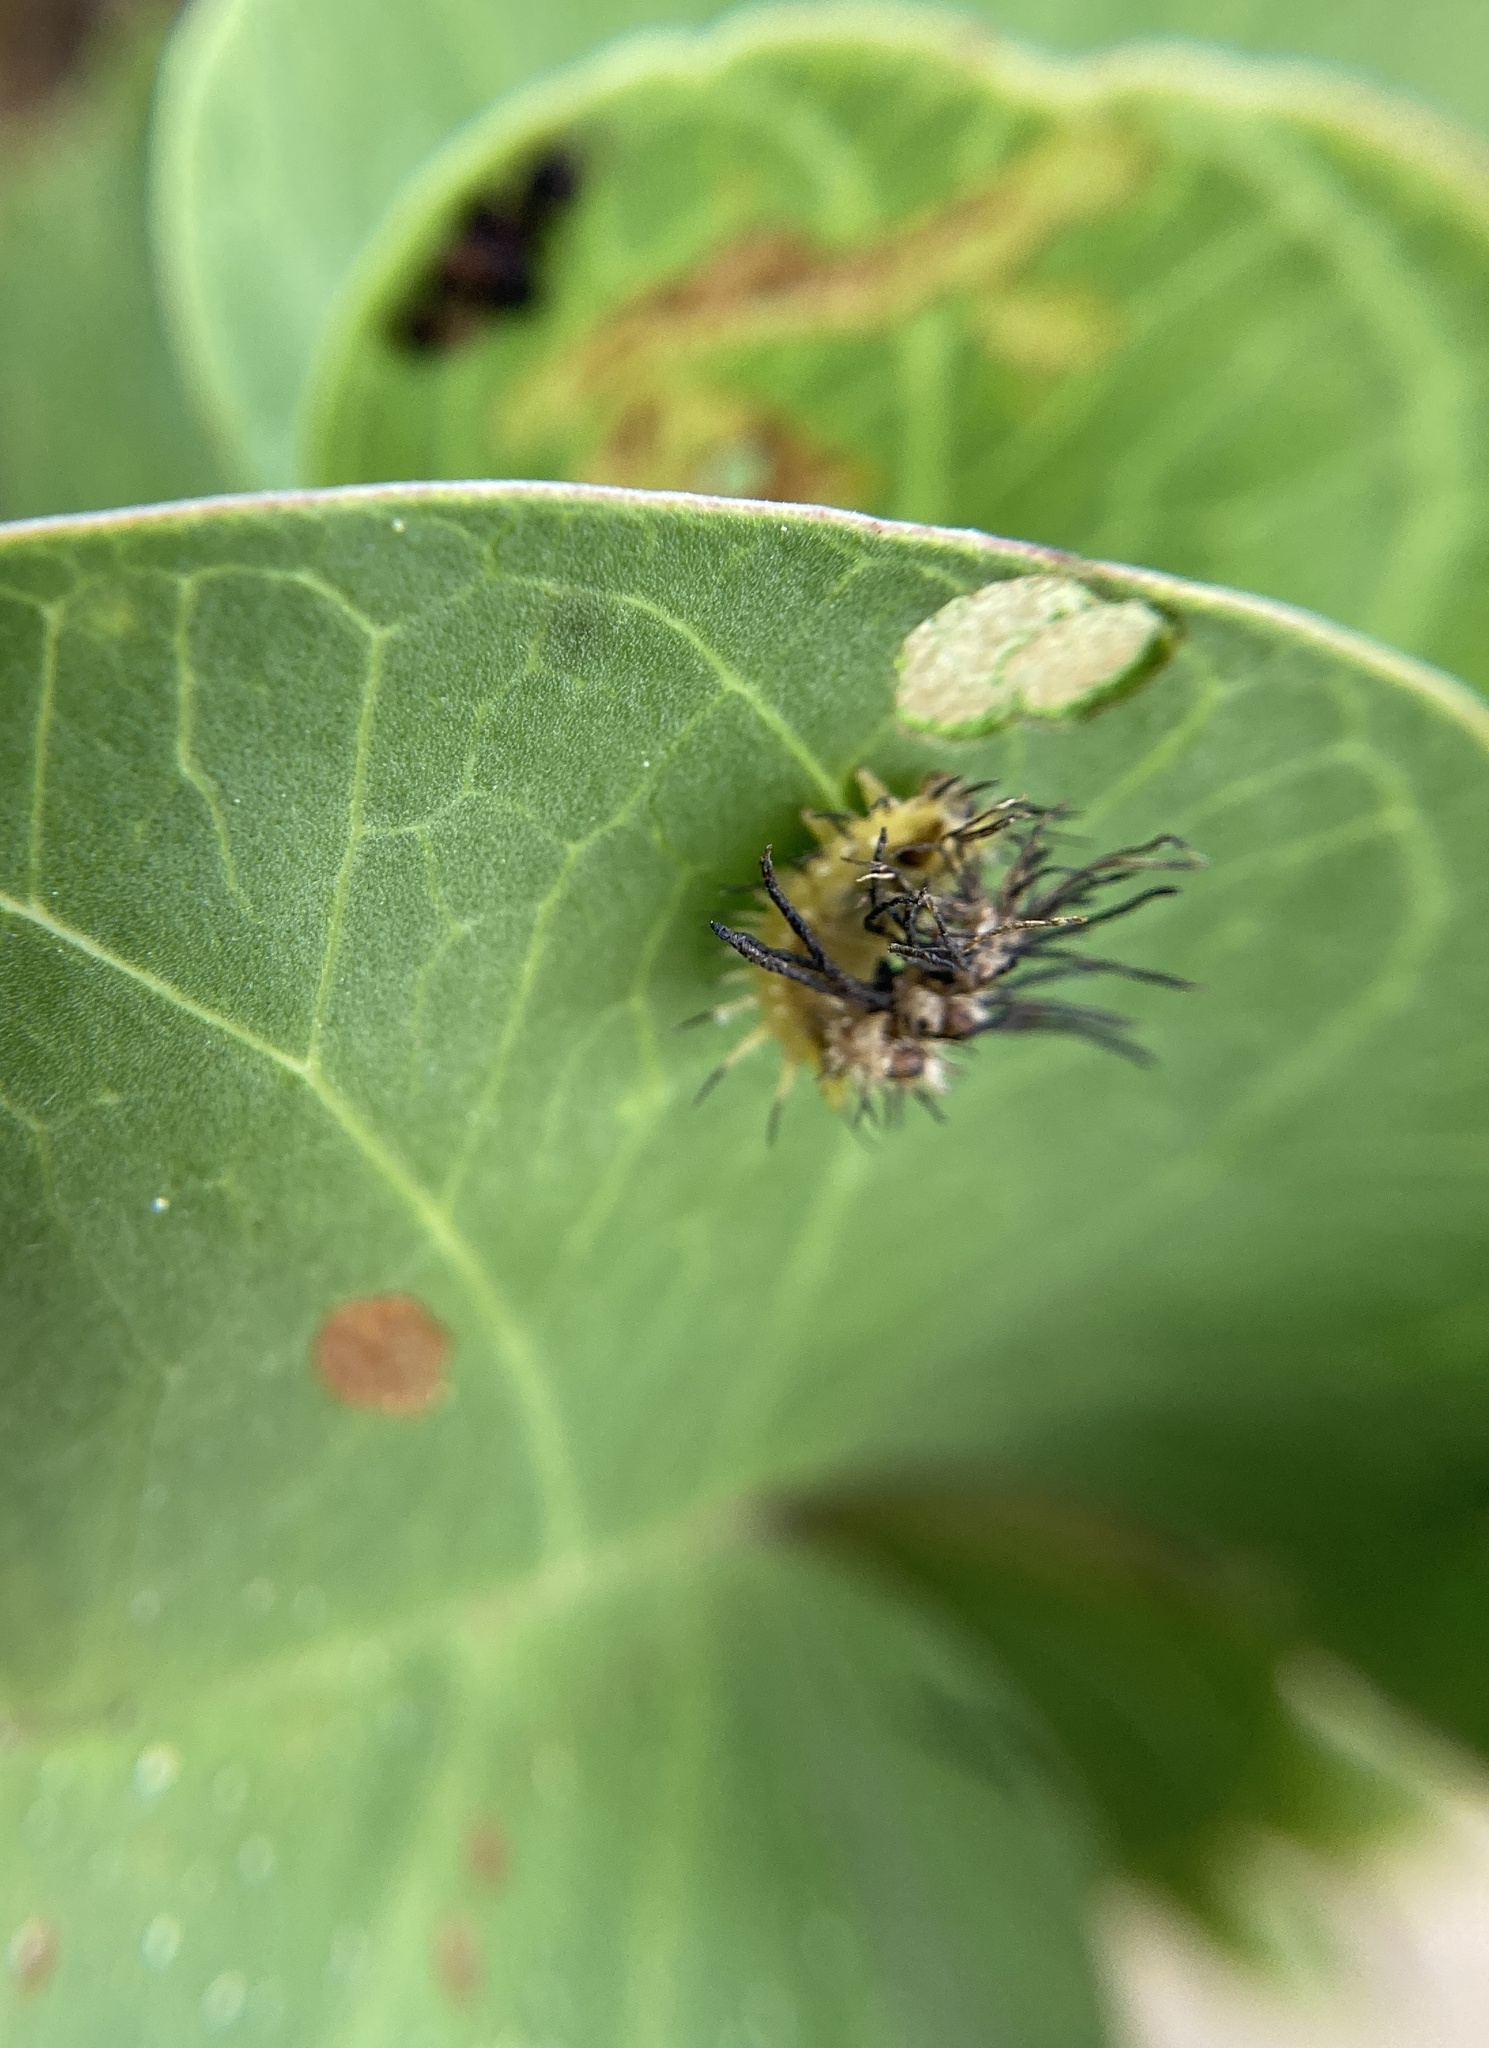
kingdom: Animalia
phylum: Arthropoda
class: Insecta
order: Coleoptera
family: Chrysomelidae
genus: Aspidimorpha
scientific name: Aspidimorpha deusta
